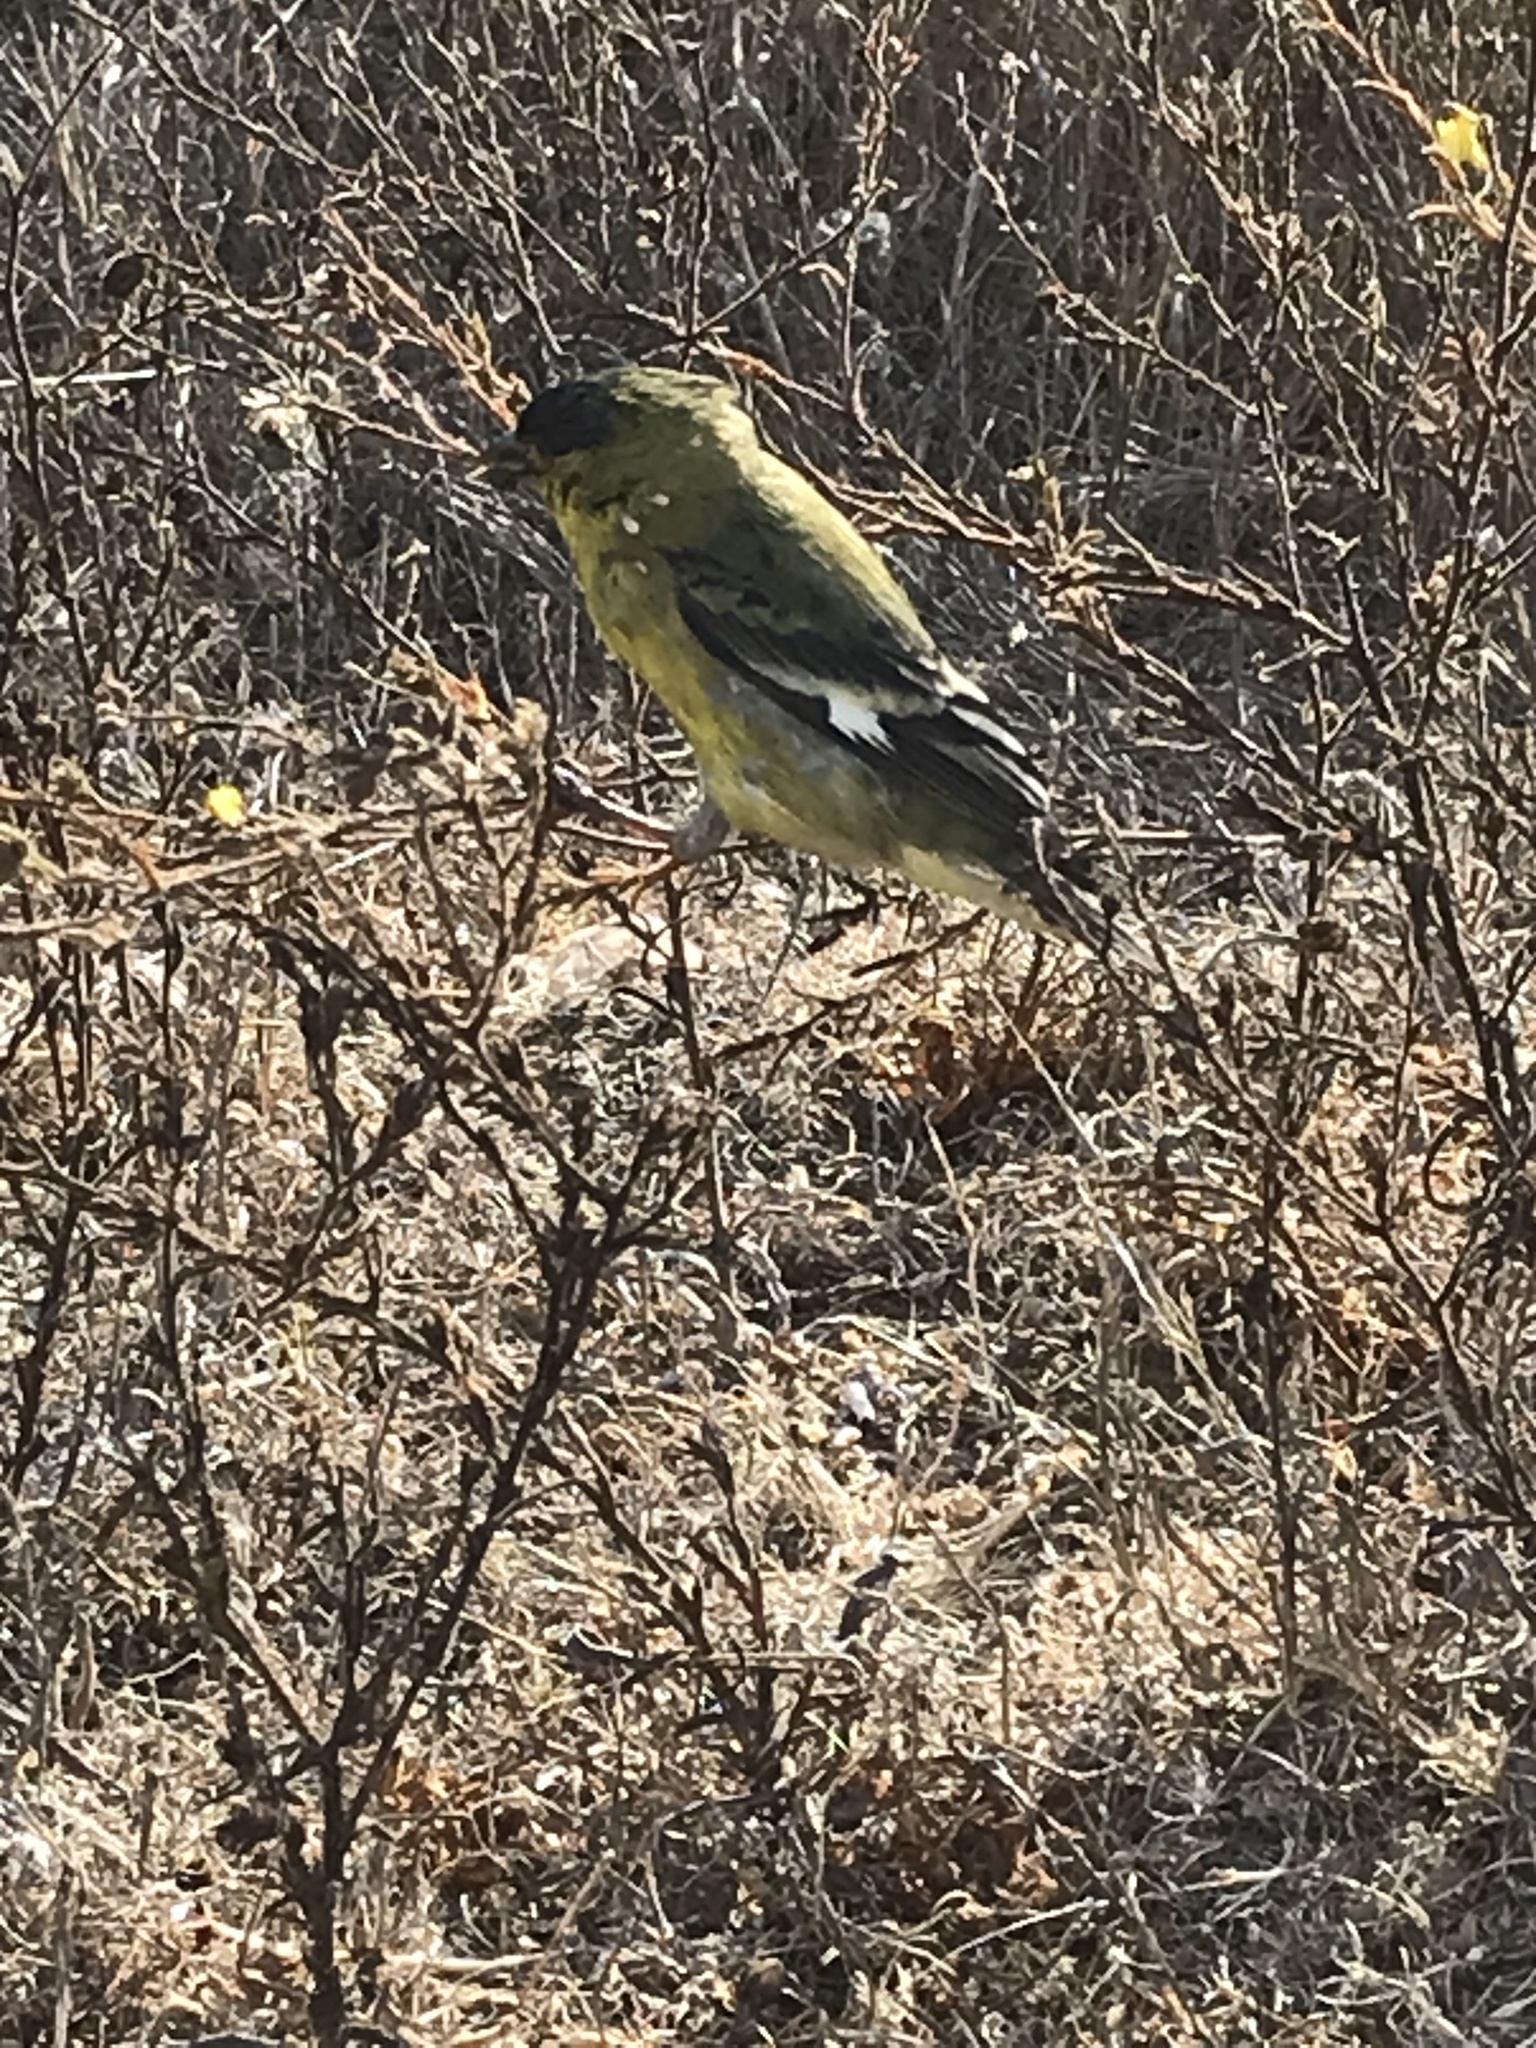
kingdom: Animalia
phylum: Chordata
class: Aves
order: Passeriformes
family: Fringillidae
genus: Spinus
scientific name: Spinus psaltria
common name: Lesser goldfinch
